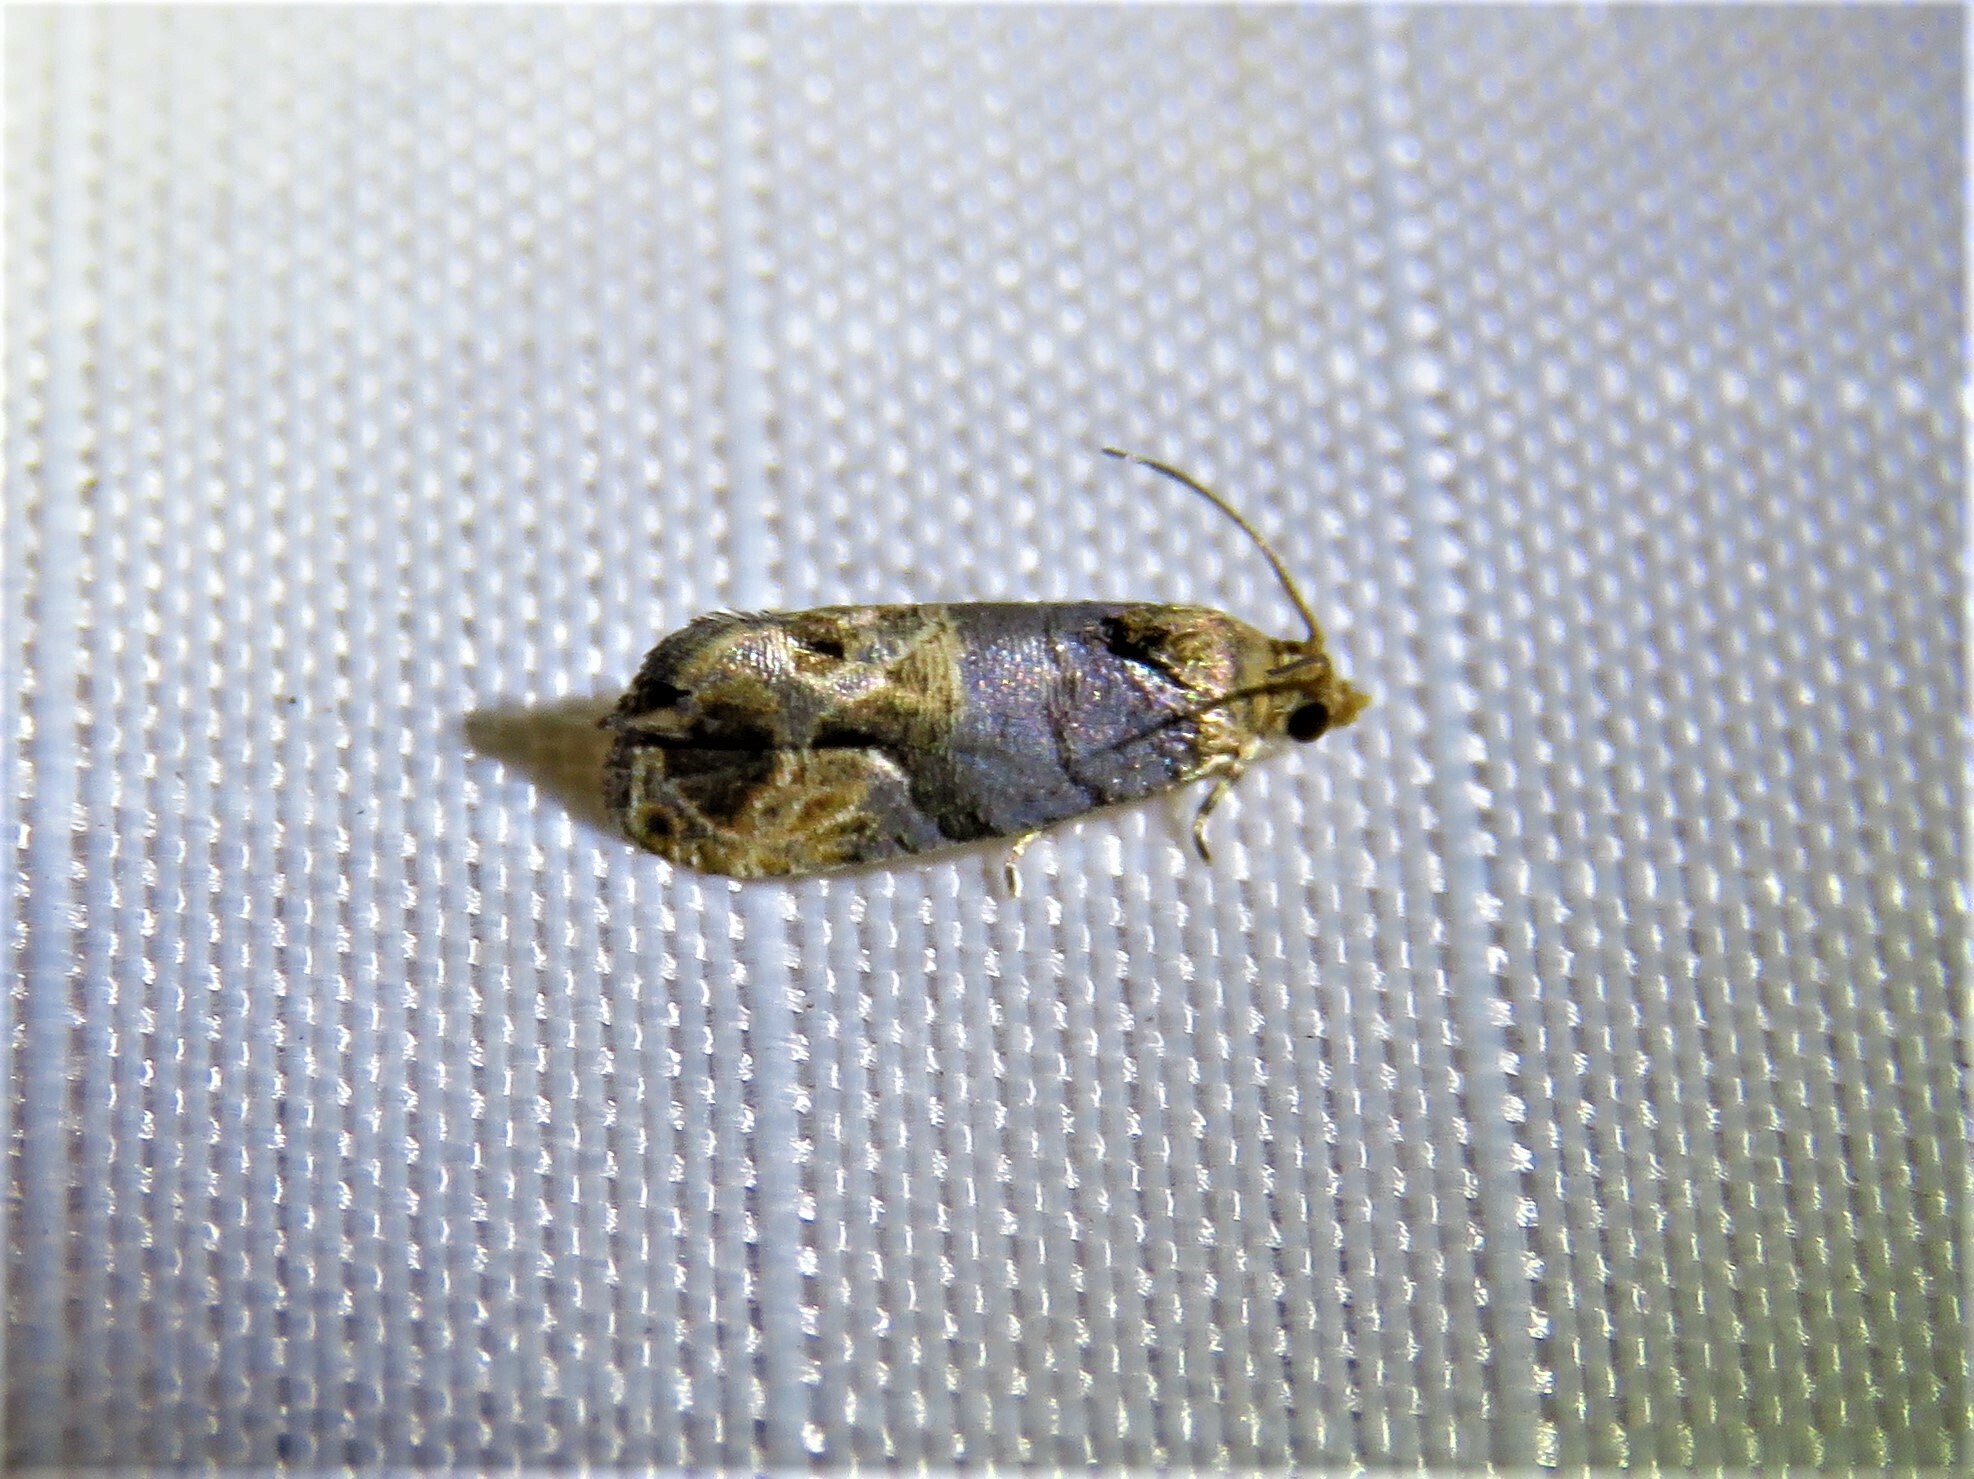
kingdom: Animalia
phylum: Arthropoda
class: Insecta
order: Lepidoptera
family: Tortricidae
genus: Paralobesia
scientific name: Paralobesia viteana
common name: Grape berry moth
